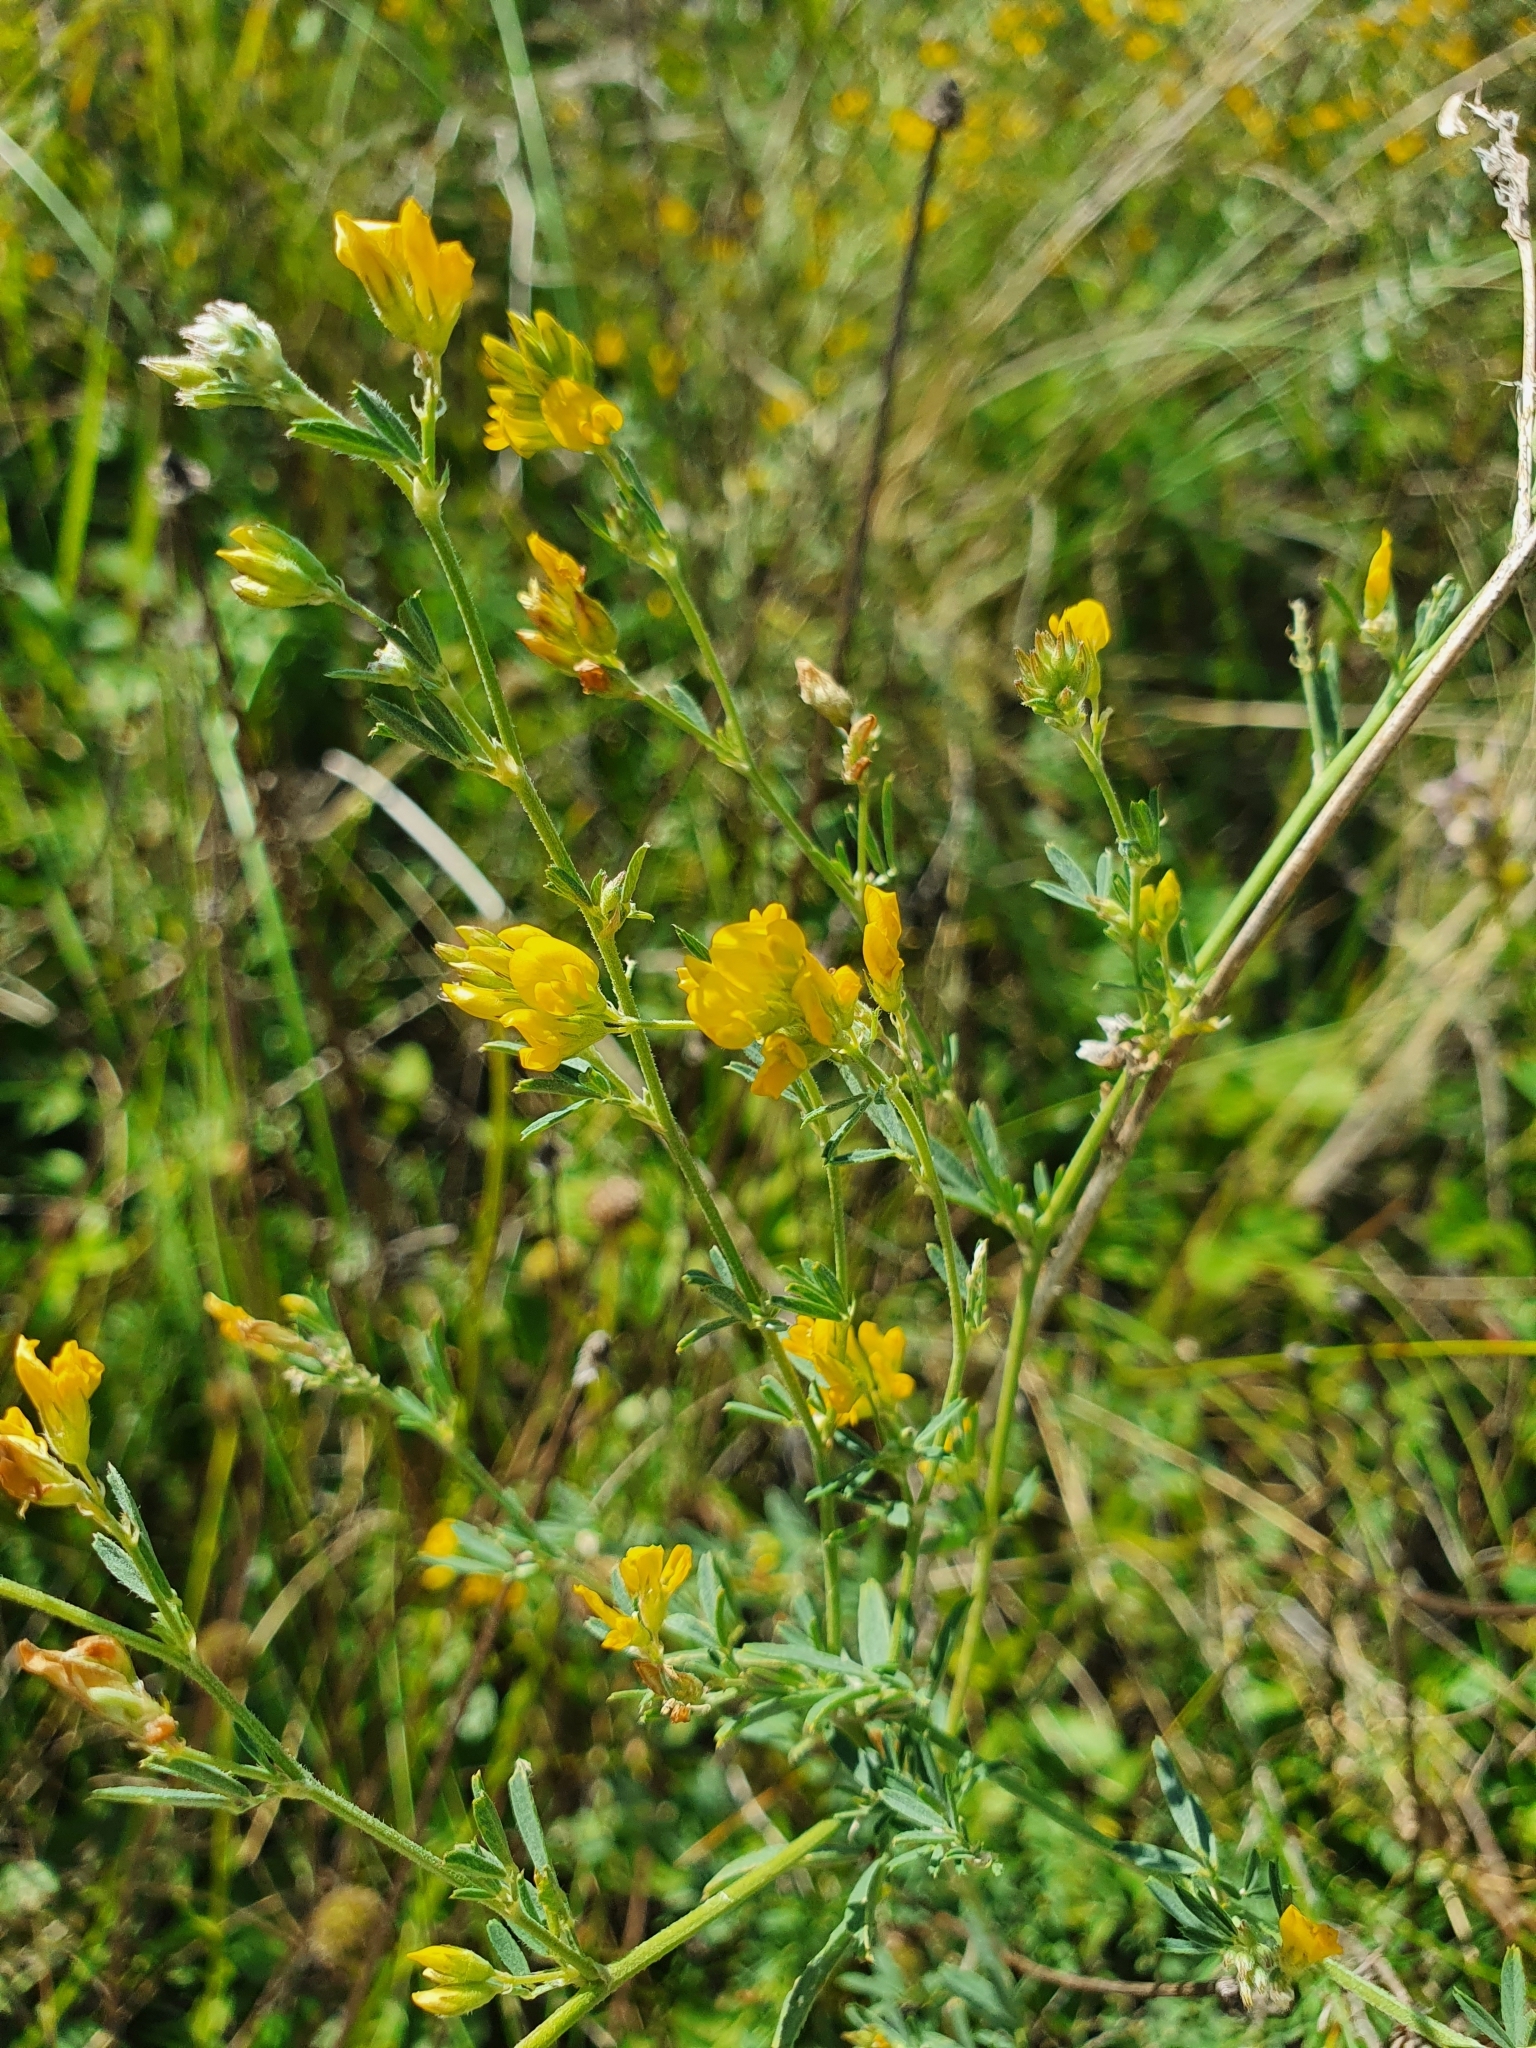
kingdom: Plantae
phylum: Tracheophyta
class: Magnoliopsida
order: Fabales
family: Fabaceae
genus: Medicago
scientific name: Medicago falcata
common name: Sickle medick
